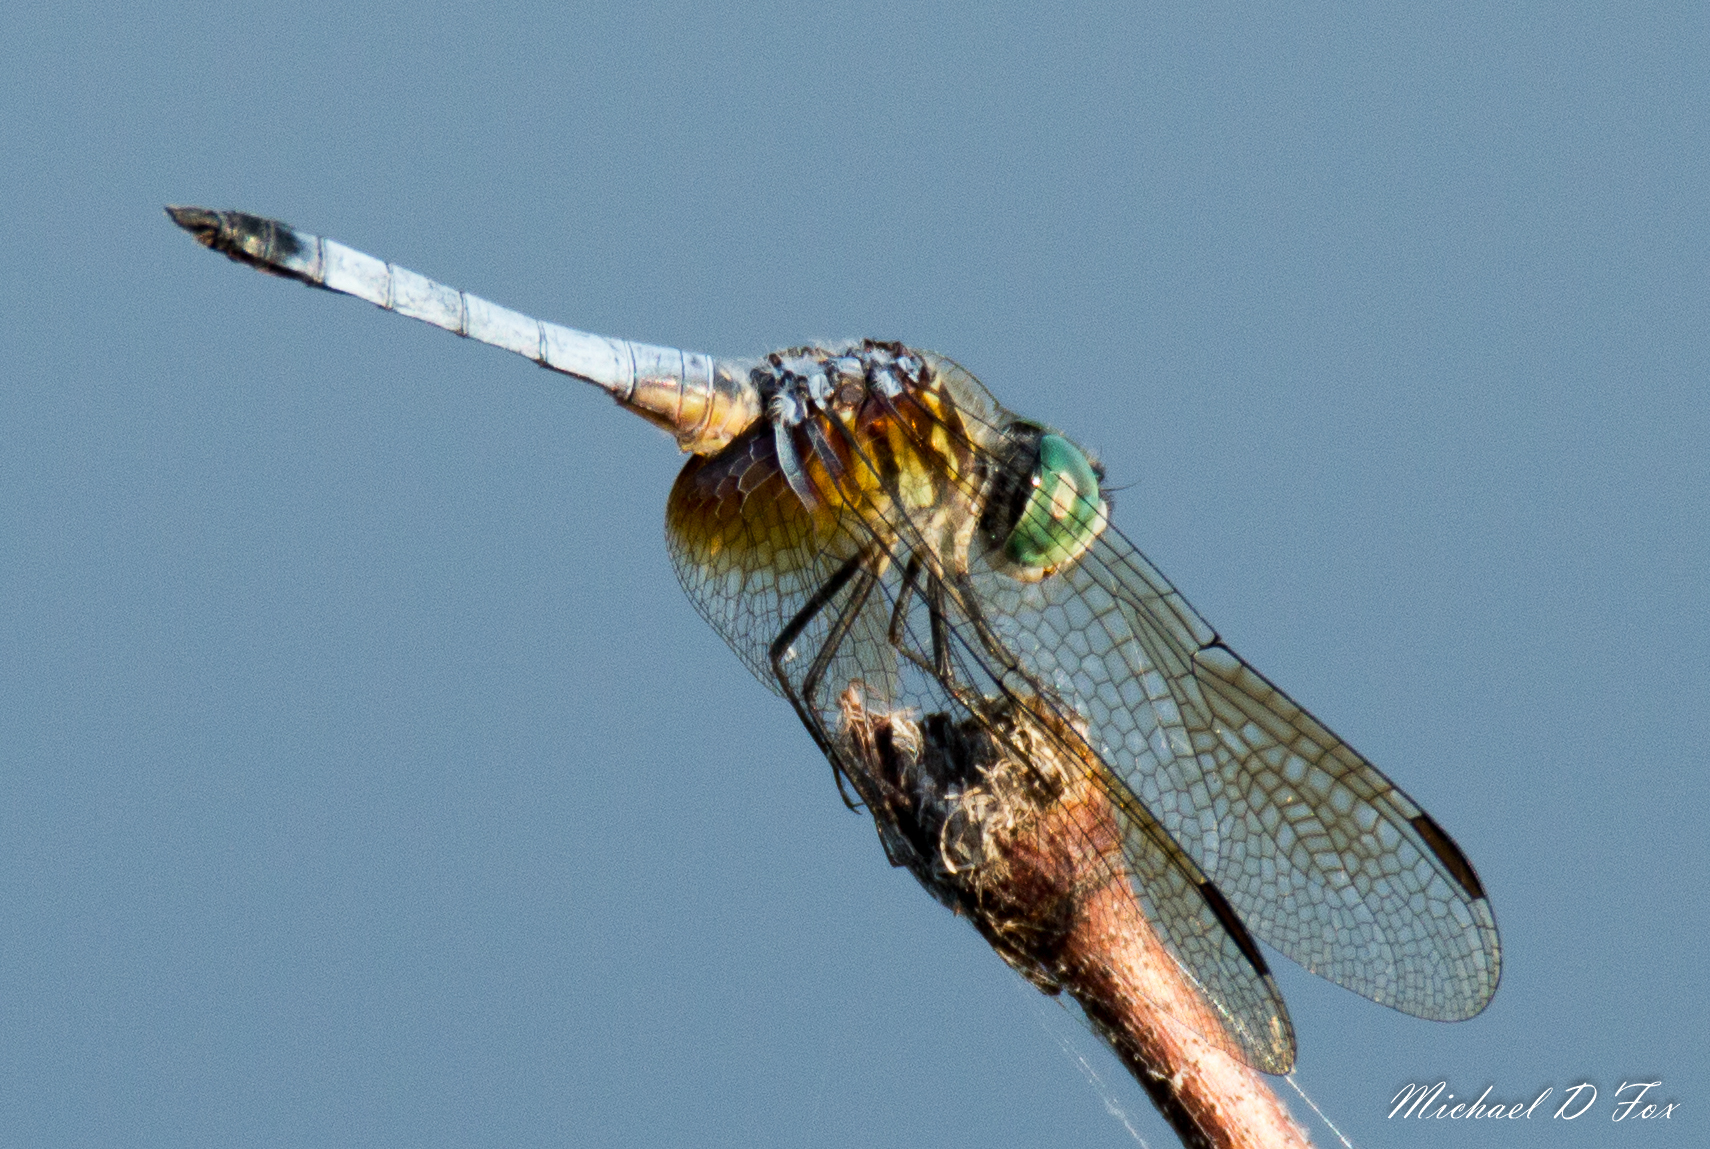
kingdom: Animalia
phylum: Arthropoda
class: Insecta
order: Odonata
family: Libellulidae
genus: Pachydiplax
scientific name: Pachydiplax longipennis
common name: Blue dasher
